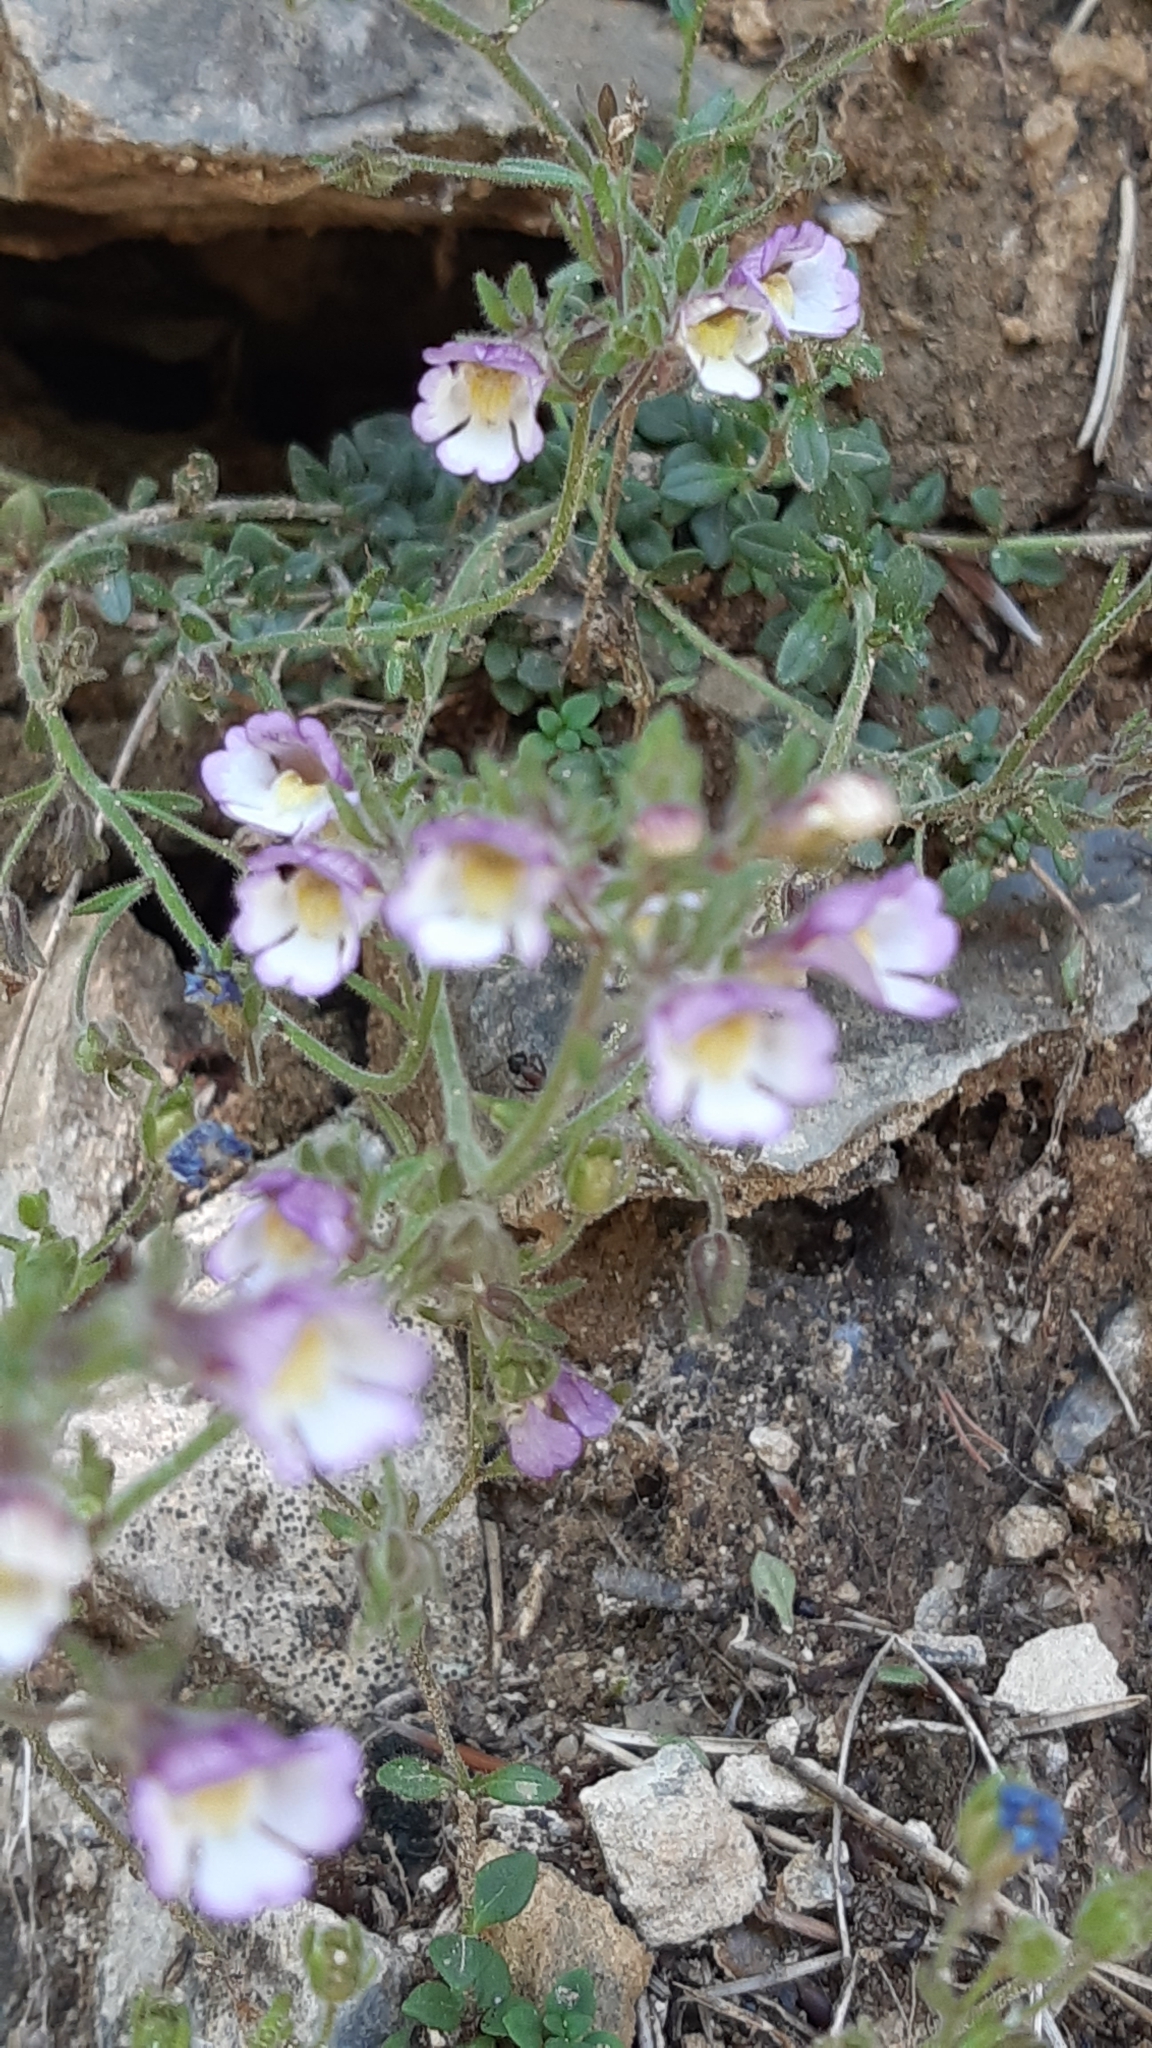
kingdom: Plantae
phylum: Tracheophyta
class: Magnoliopsida
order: Lamiales
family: Plantaginaceae
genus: Chaenorhinum
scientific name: Chaenorhinum origanifolium
